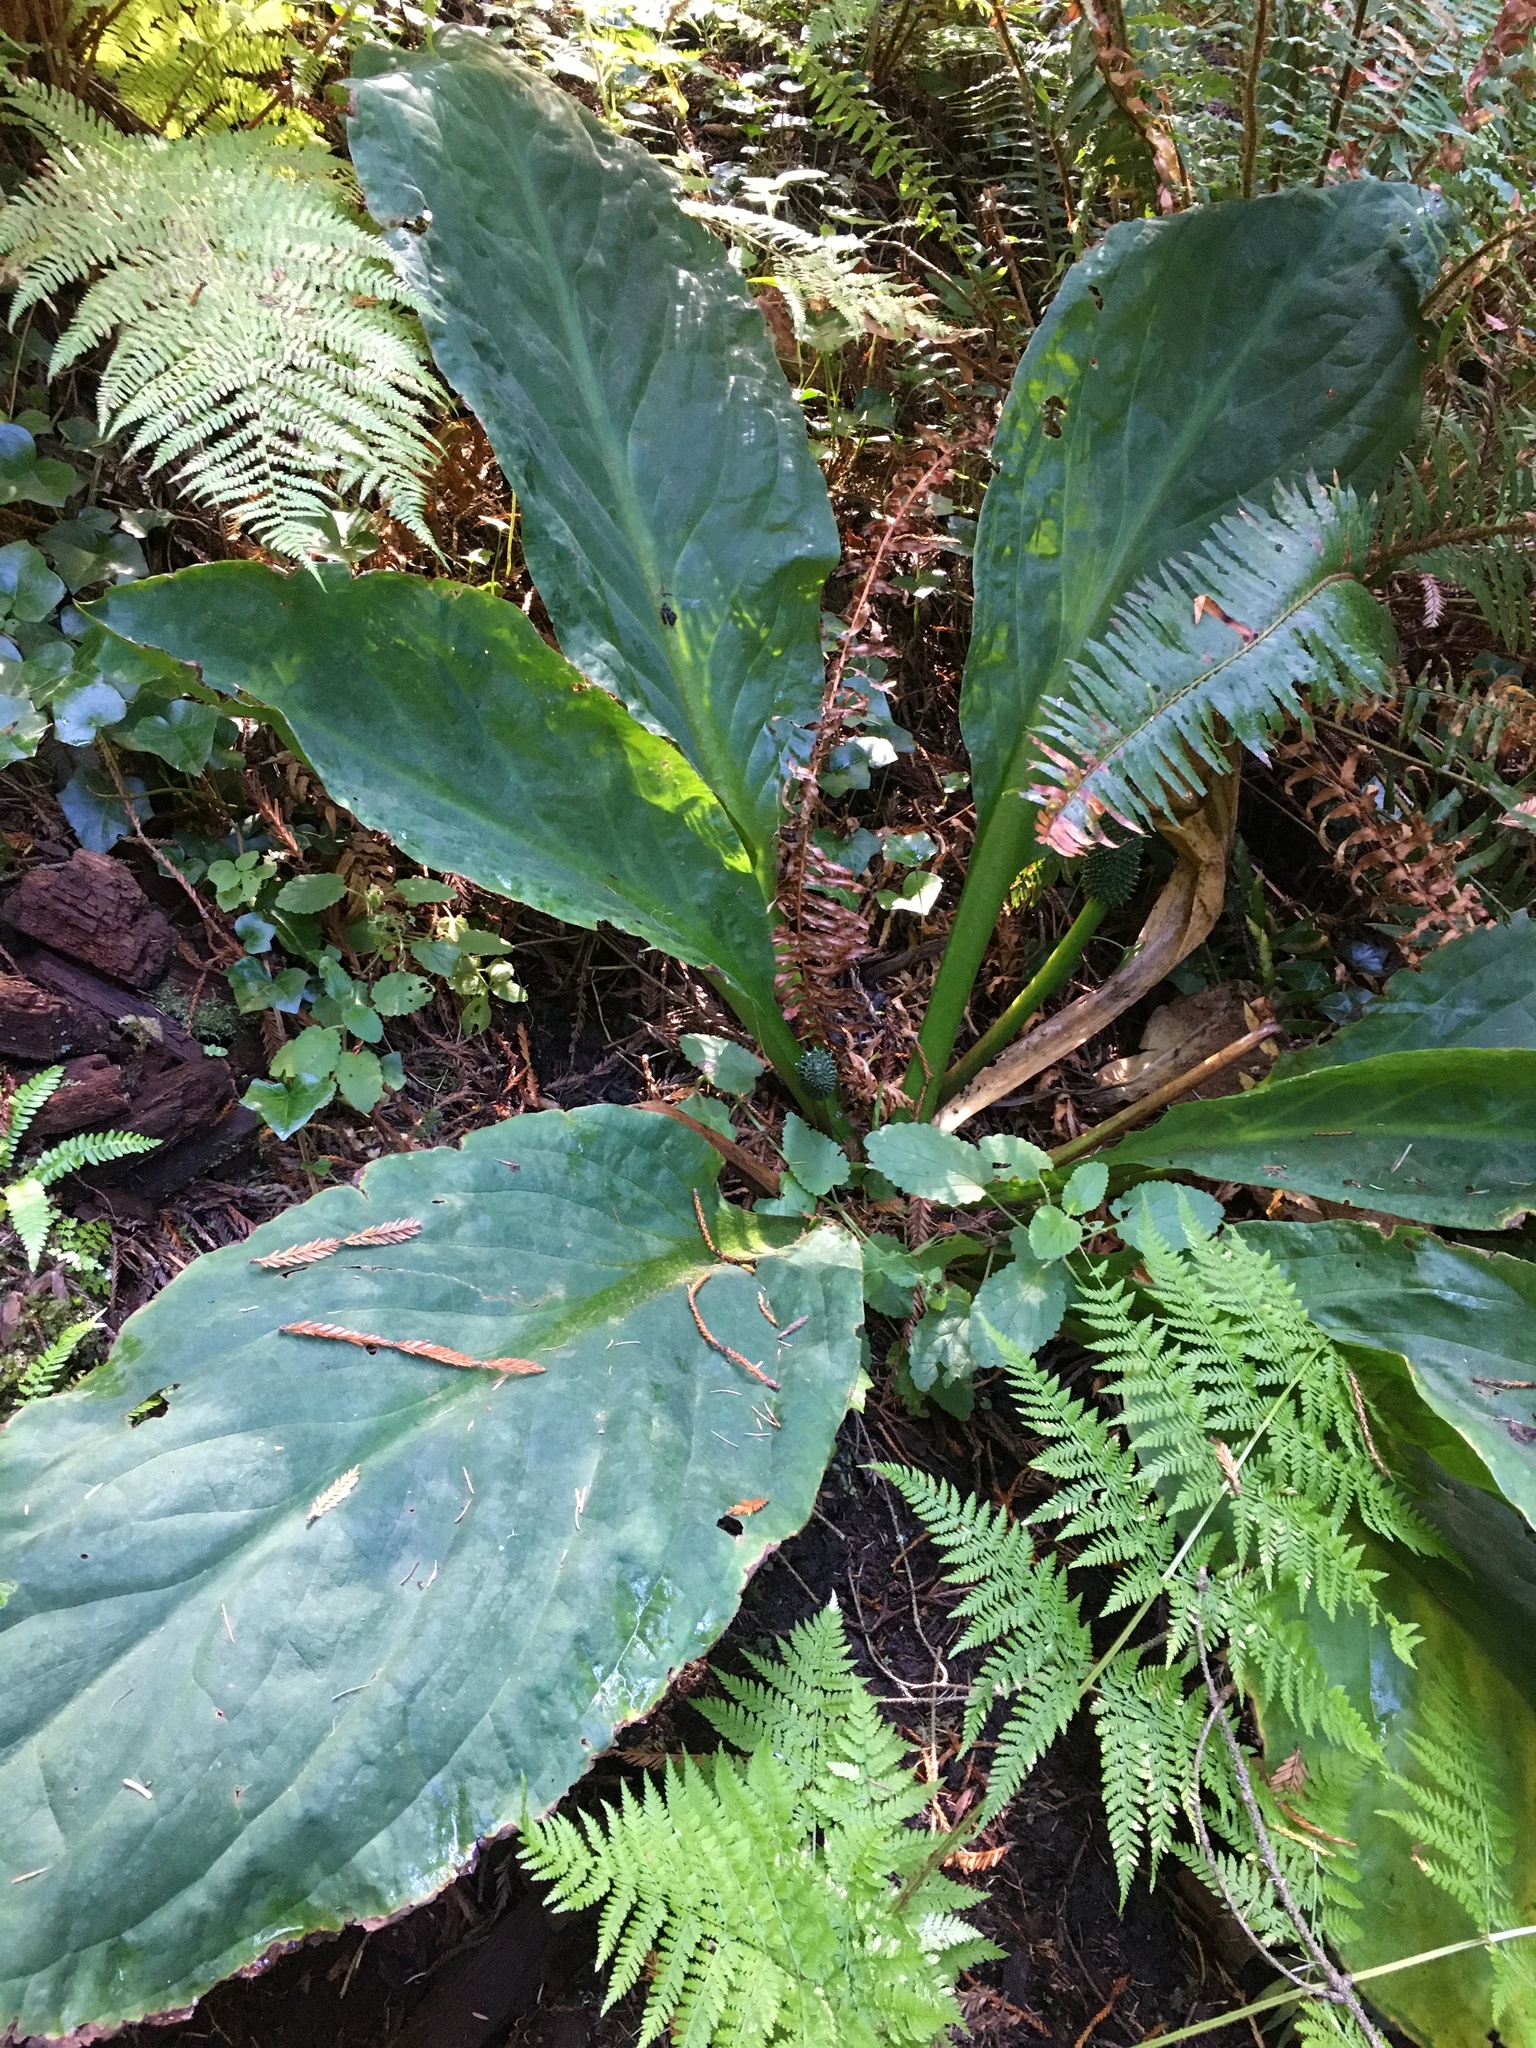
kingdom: Plantae
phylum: Tracheophyta
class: Liliopsida
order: Alismatales
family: Araceae
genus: Lysichiton
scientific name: Lysichiton americanus
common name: American skunk cabbage
